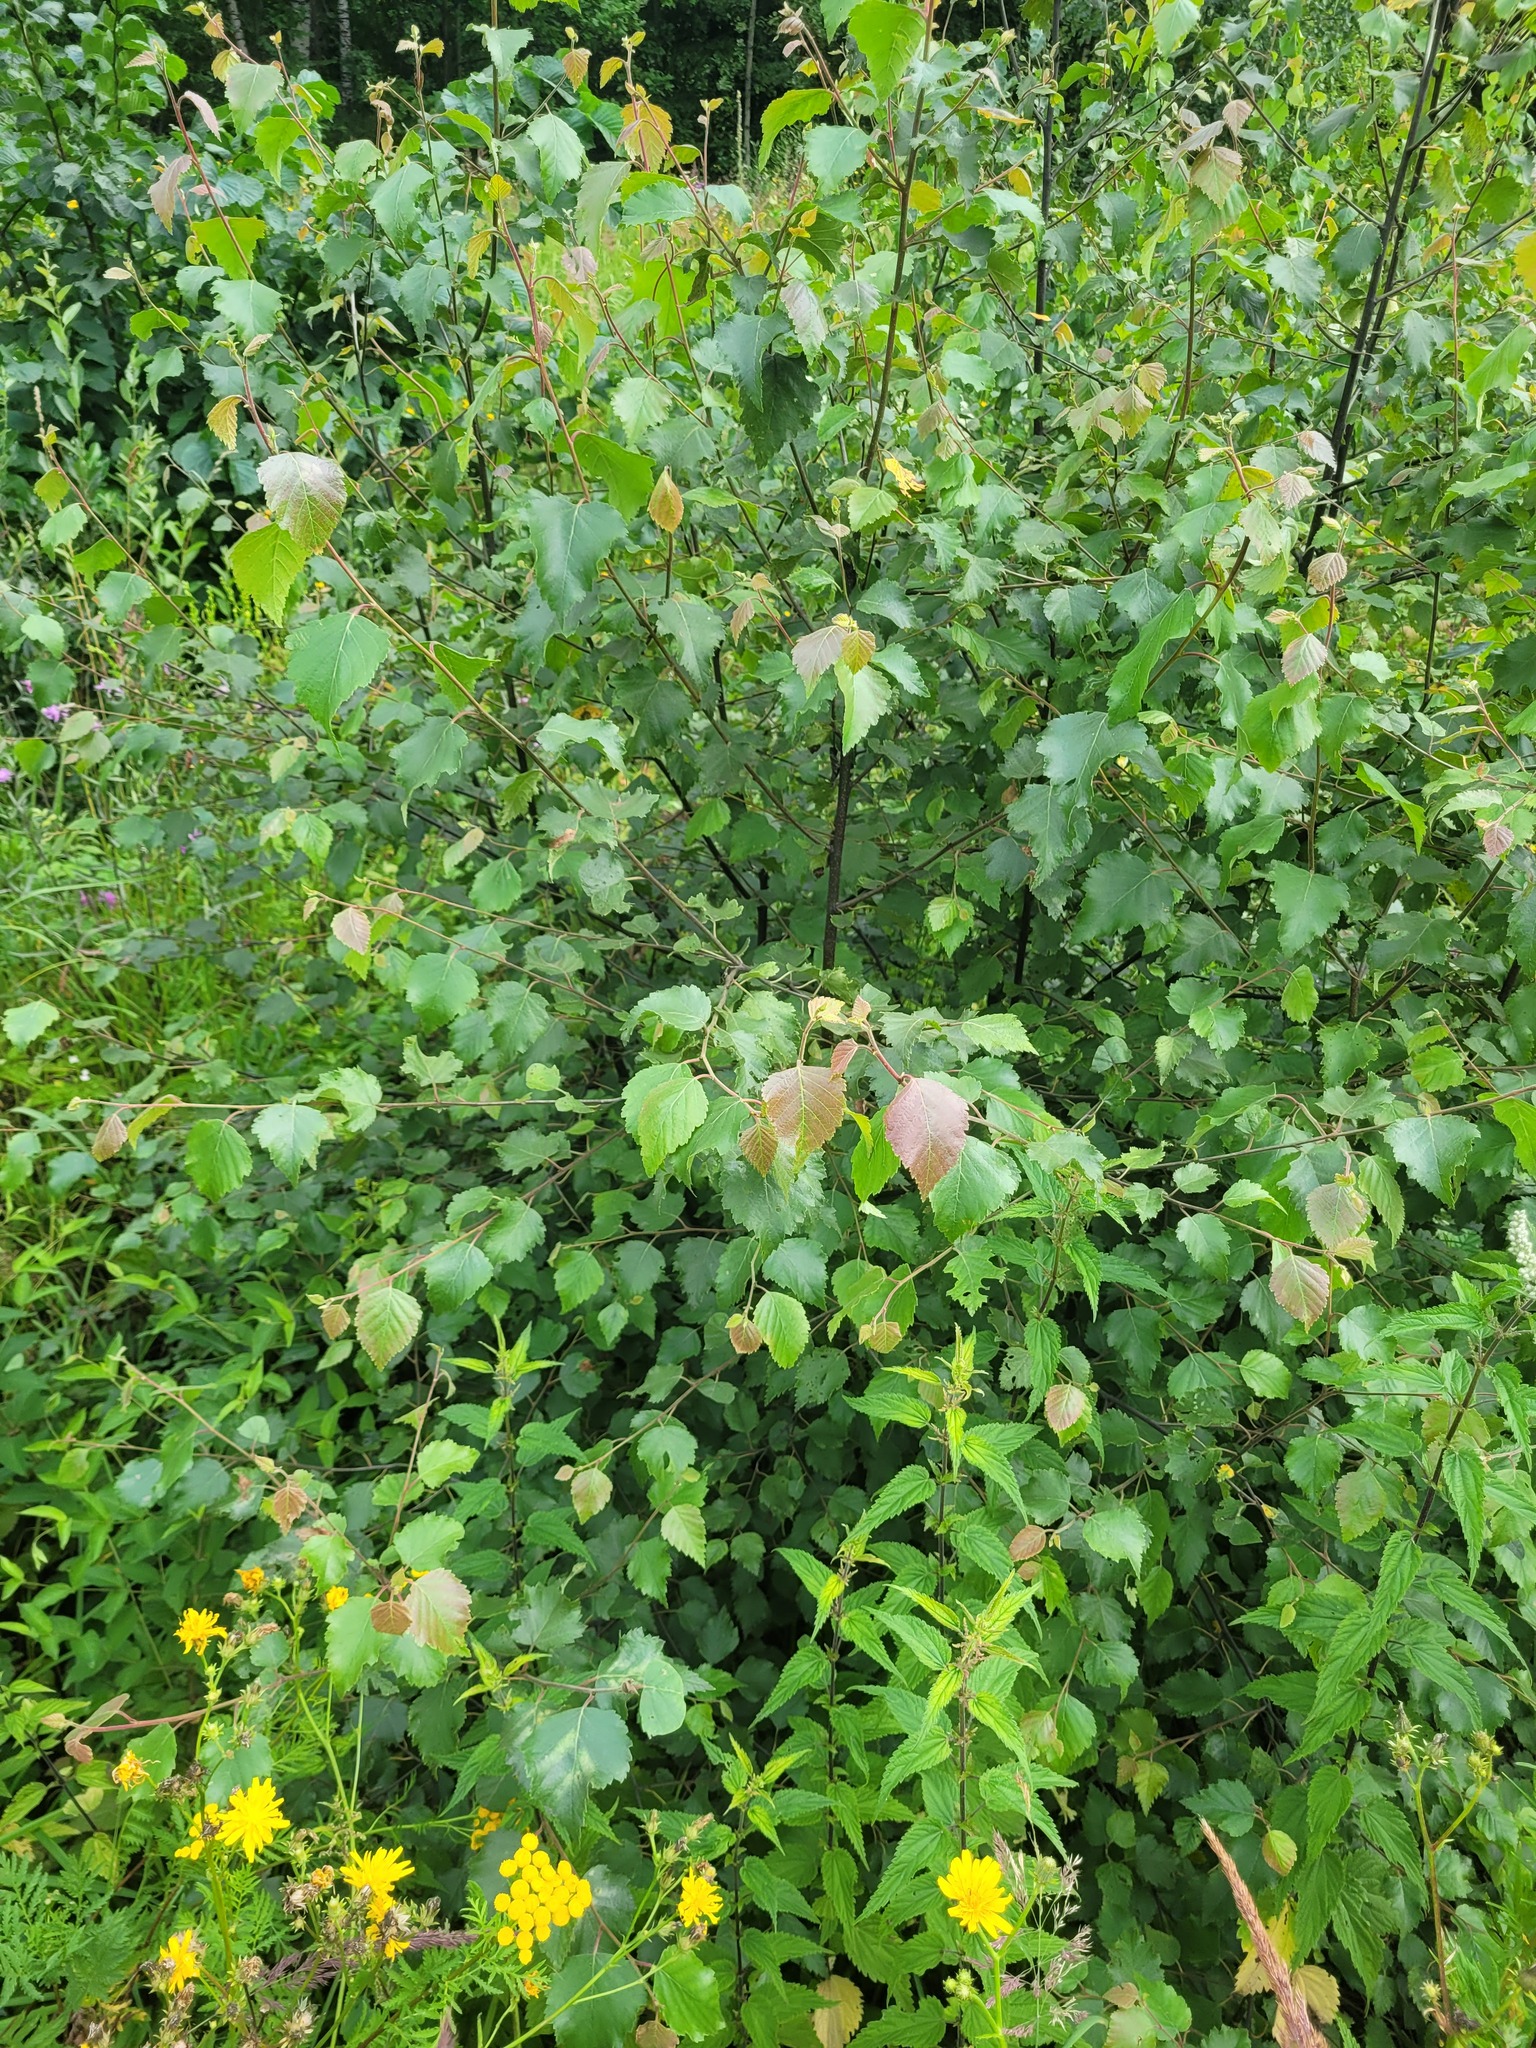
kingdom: Plantae
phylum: Tracheophyta
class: Magnoliopsida
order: Fagales
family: Betulaceae
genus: Betula
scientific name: Betula pubescens
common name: Downy birch
